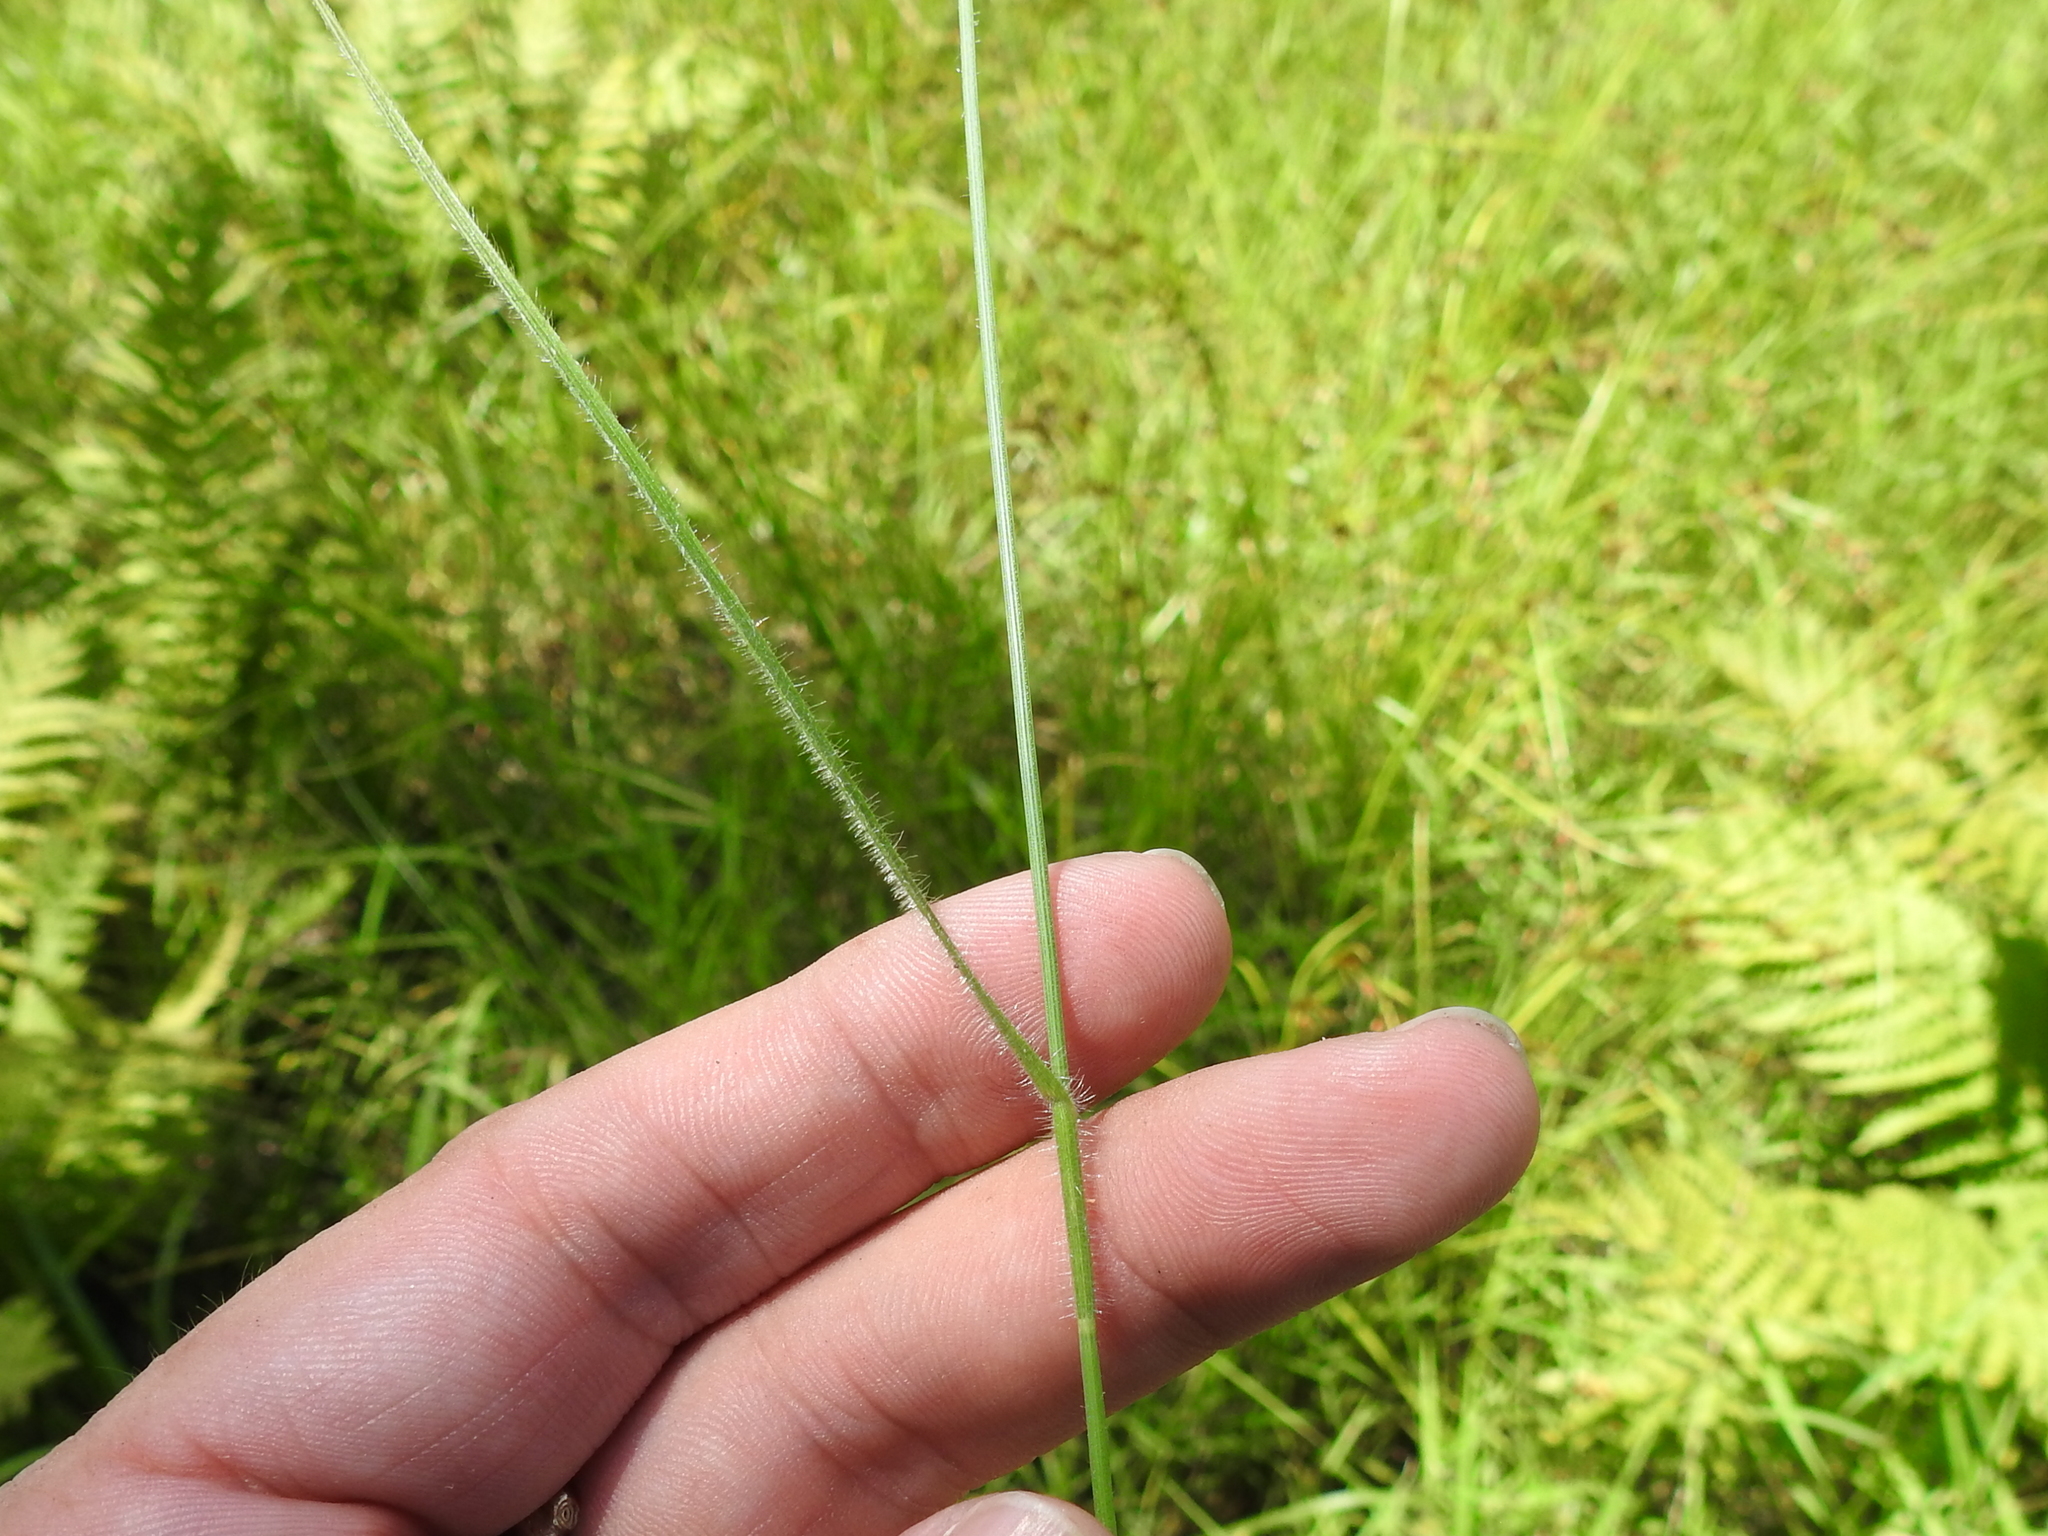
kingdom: Plantae
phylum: Tracheophyta
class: Liliopsida
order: Poales
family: Cyperaceae
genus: Fuirena
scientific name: Fuirena squarrosa
